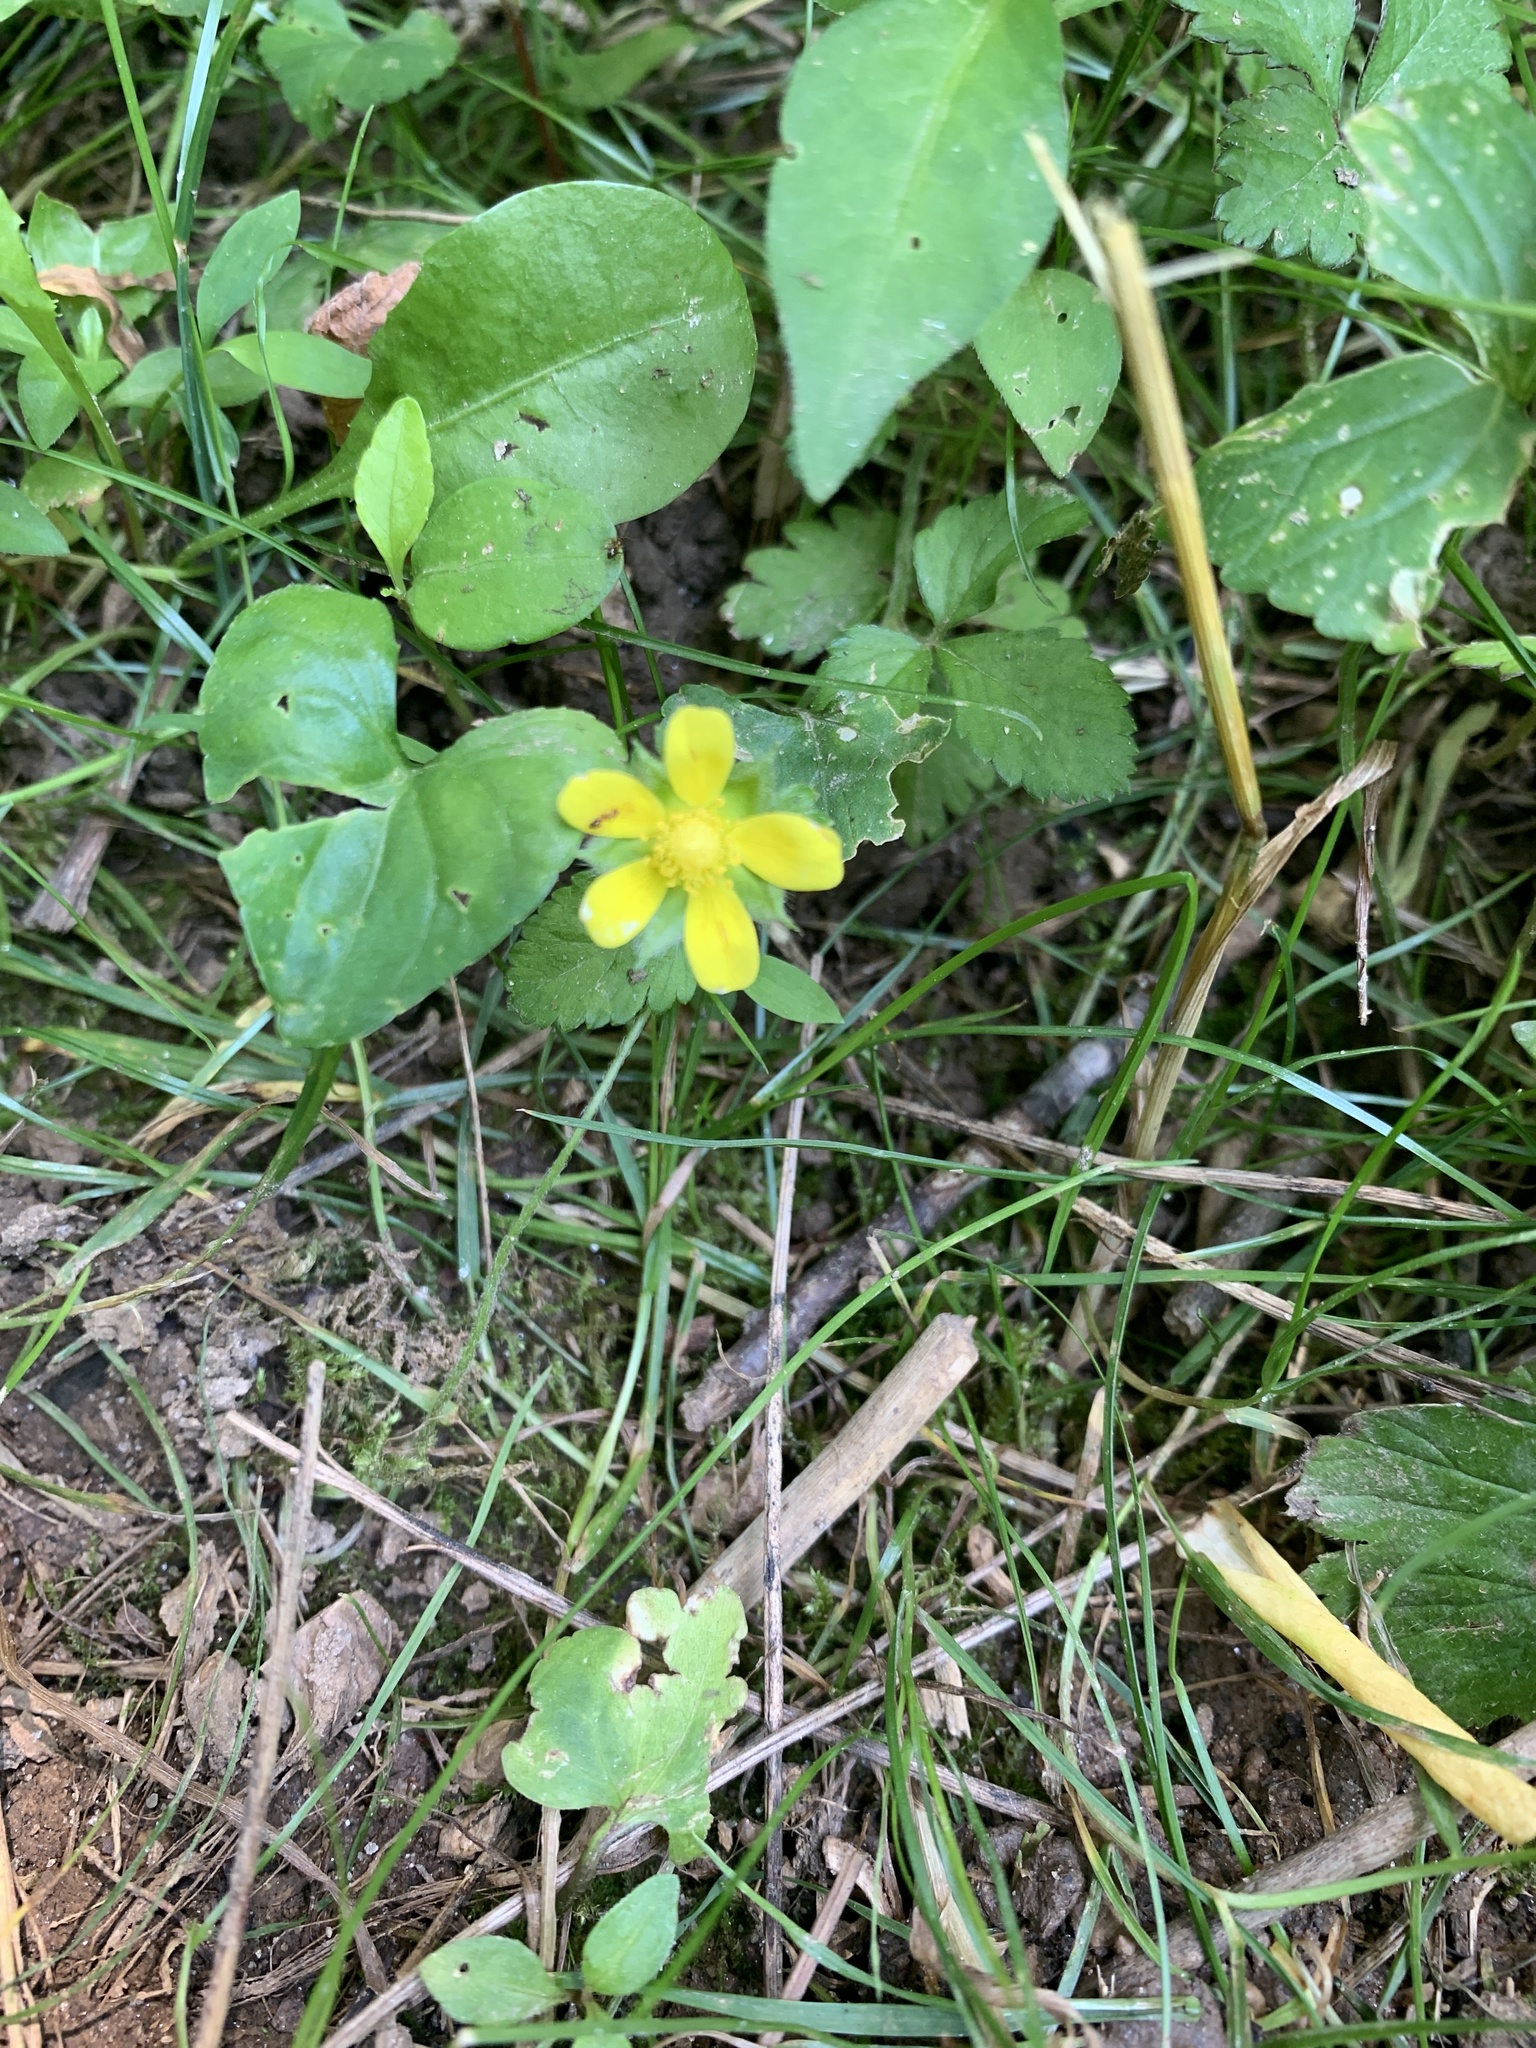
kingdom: Plantae
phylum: Tracheophyta
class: Magnoliopsida
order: Rosales
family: Rosaceae
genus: Potentilla
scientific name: Potentilla indica
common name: Yellow-flowered strawberry
